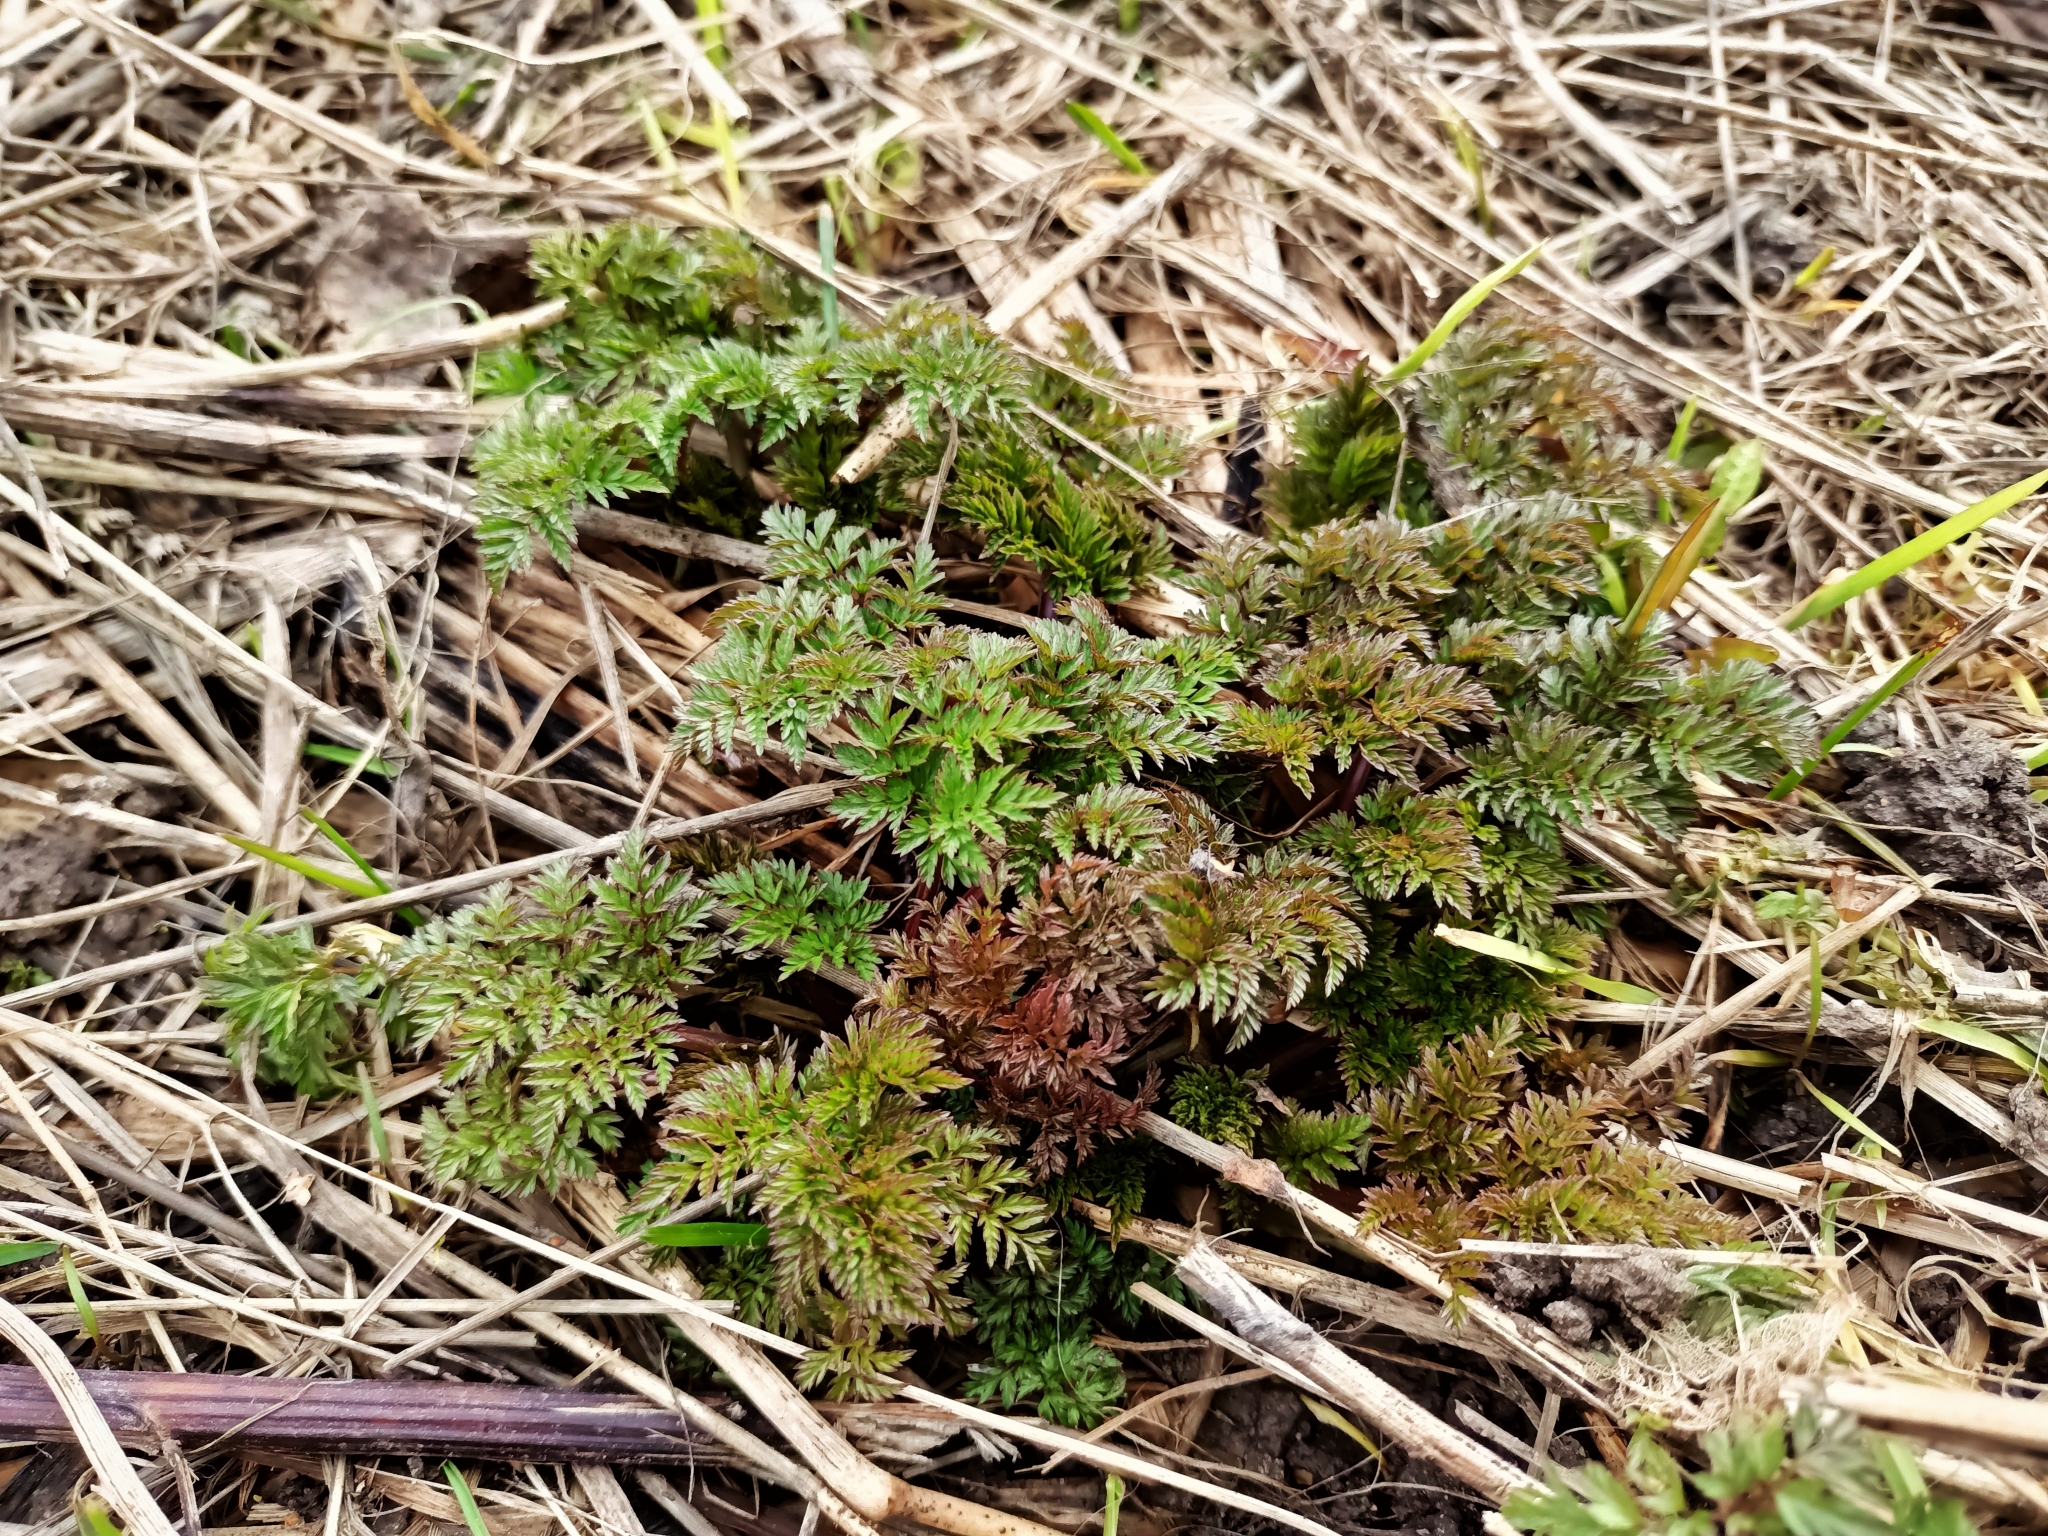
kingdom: Plantae
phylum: Tracheophyta
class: Magnoliopsida
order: Apiales
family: Apiaceae
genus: Anthriscus
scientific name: Anthriscus sylvestris
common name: Cow parsley
